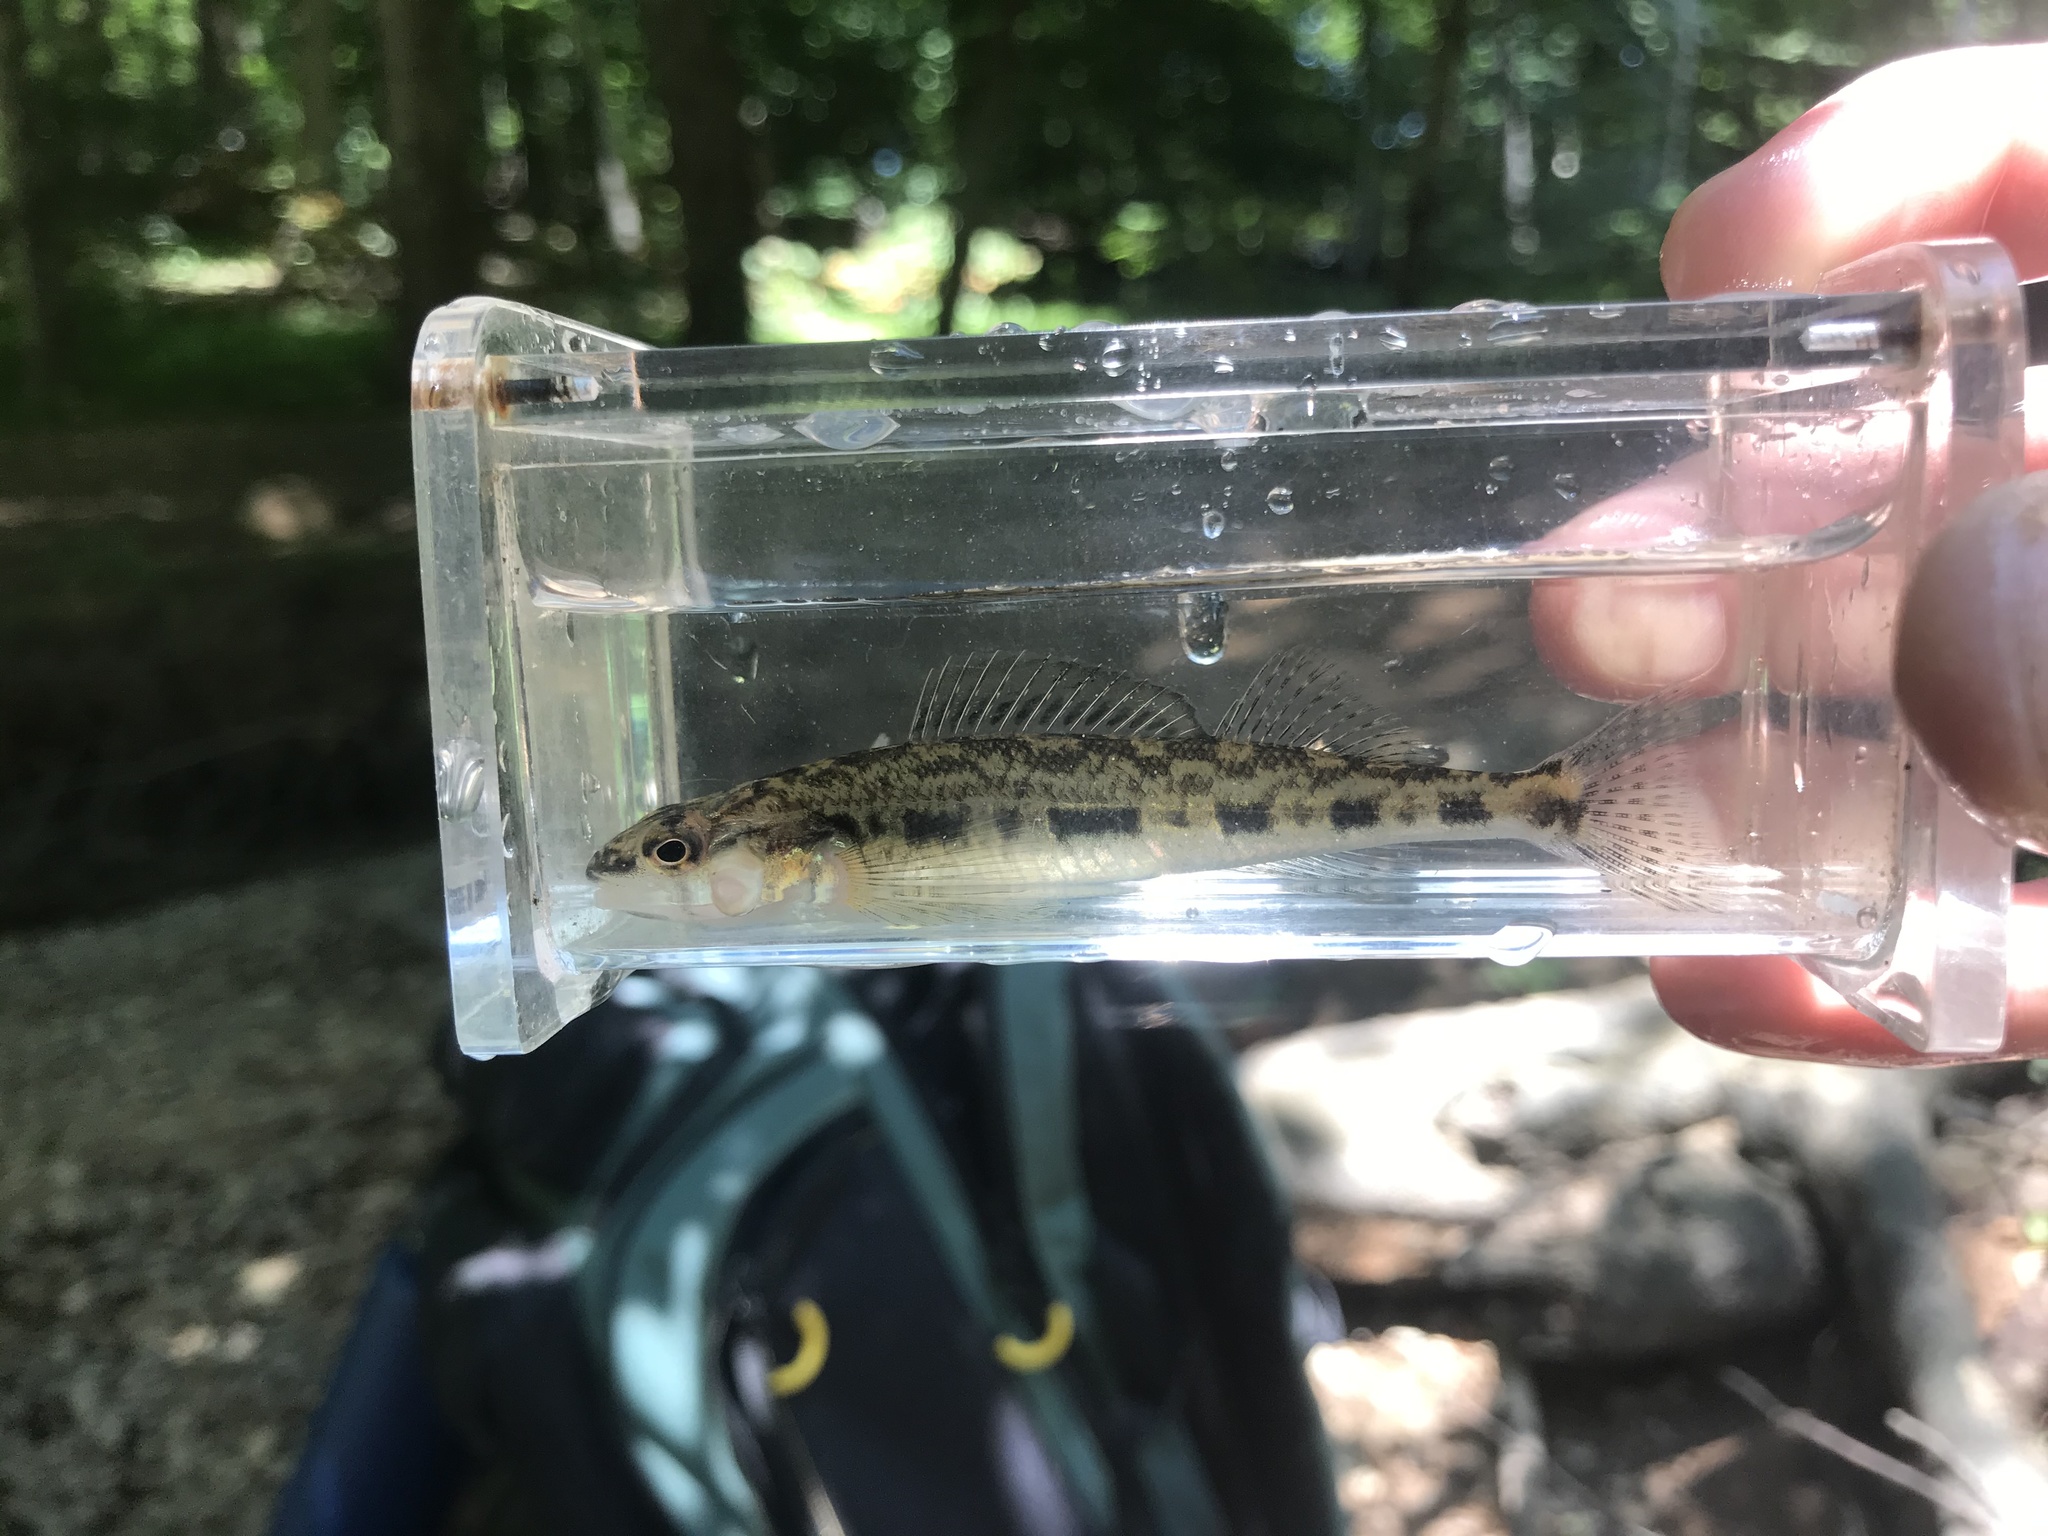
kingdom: Animalia
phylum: Chordata
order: Perciformes
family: Percidae
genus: Percina
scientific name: Percina nevisense
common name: Chainback darter
